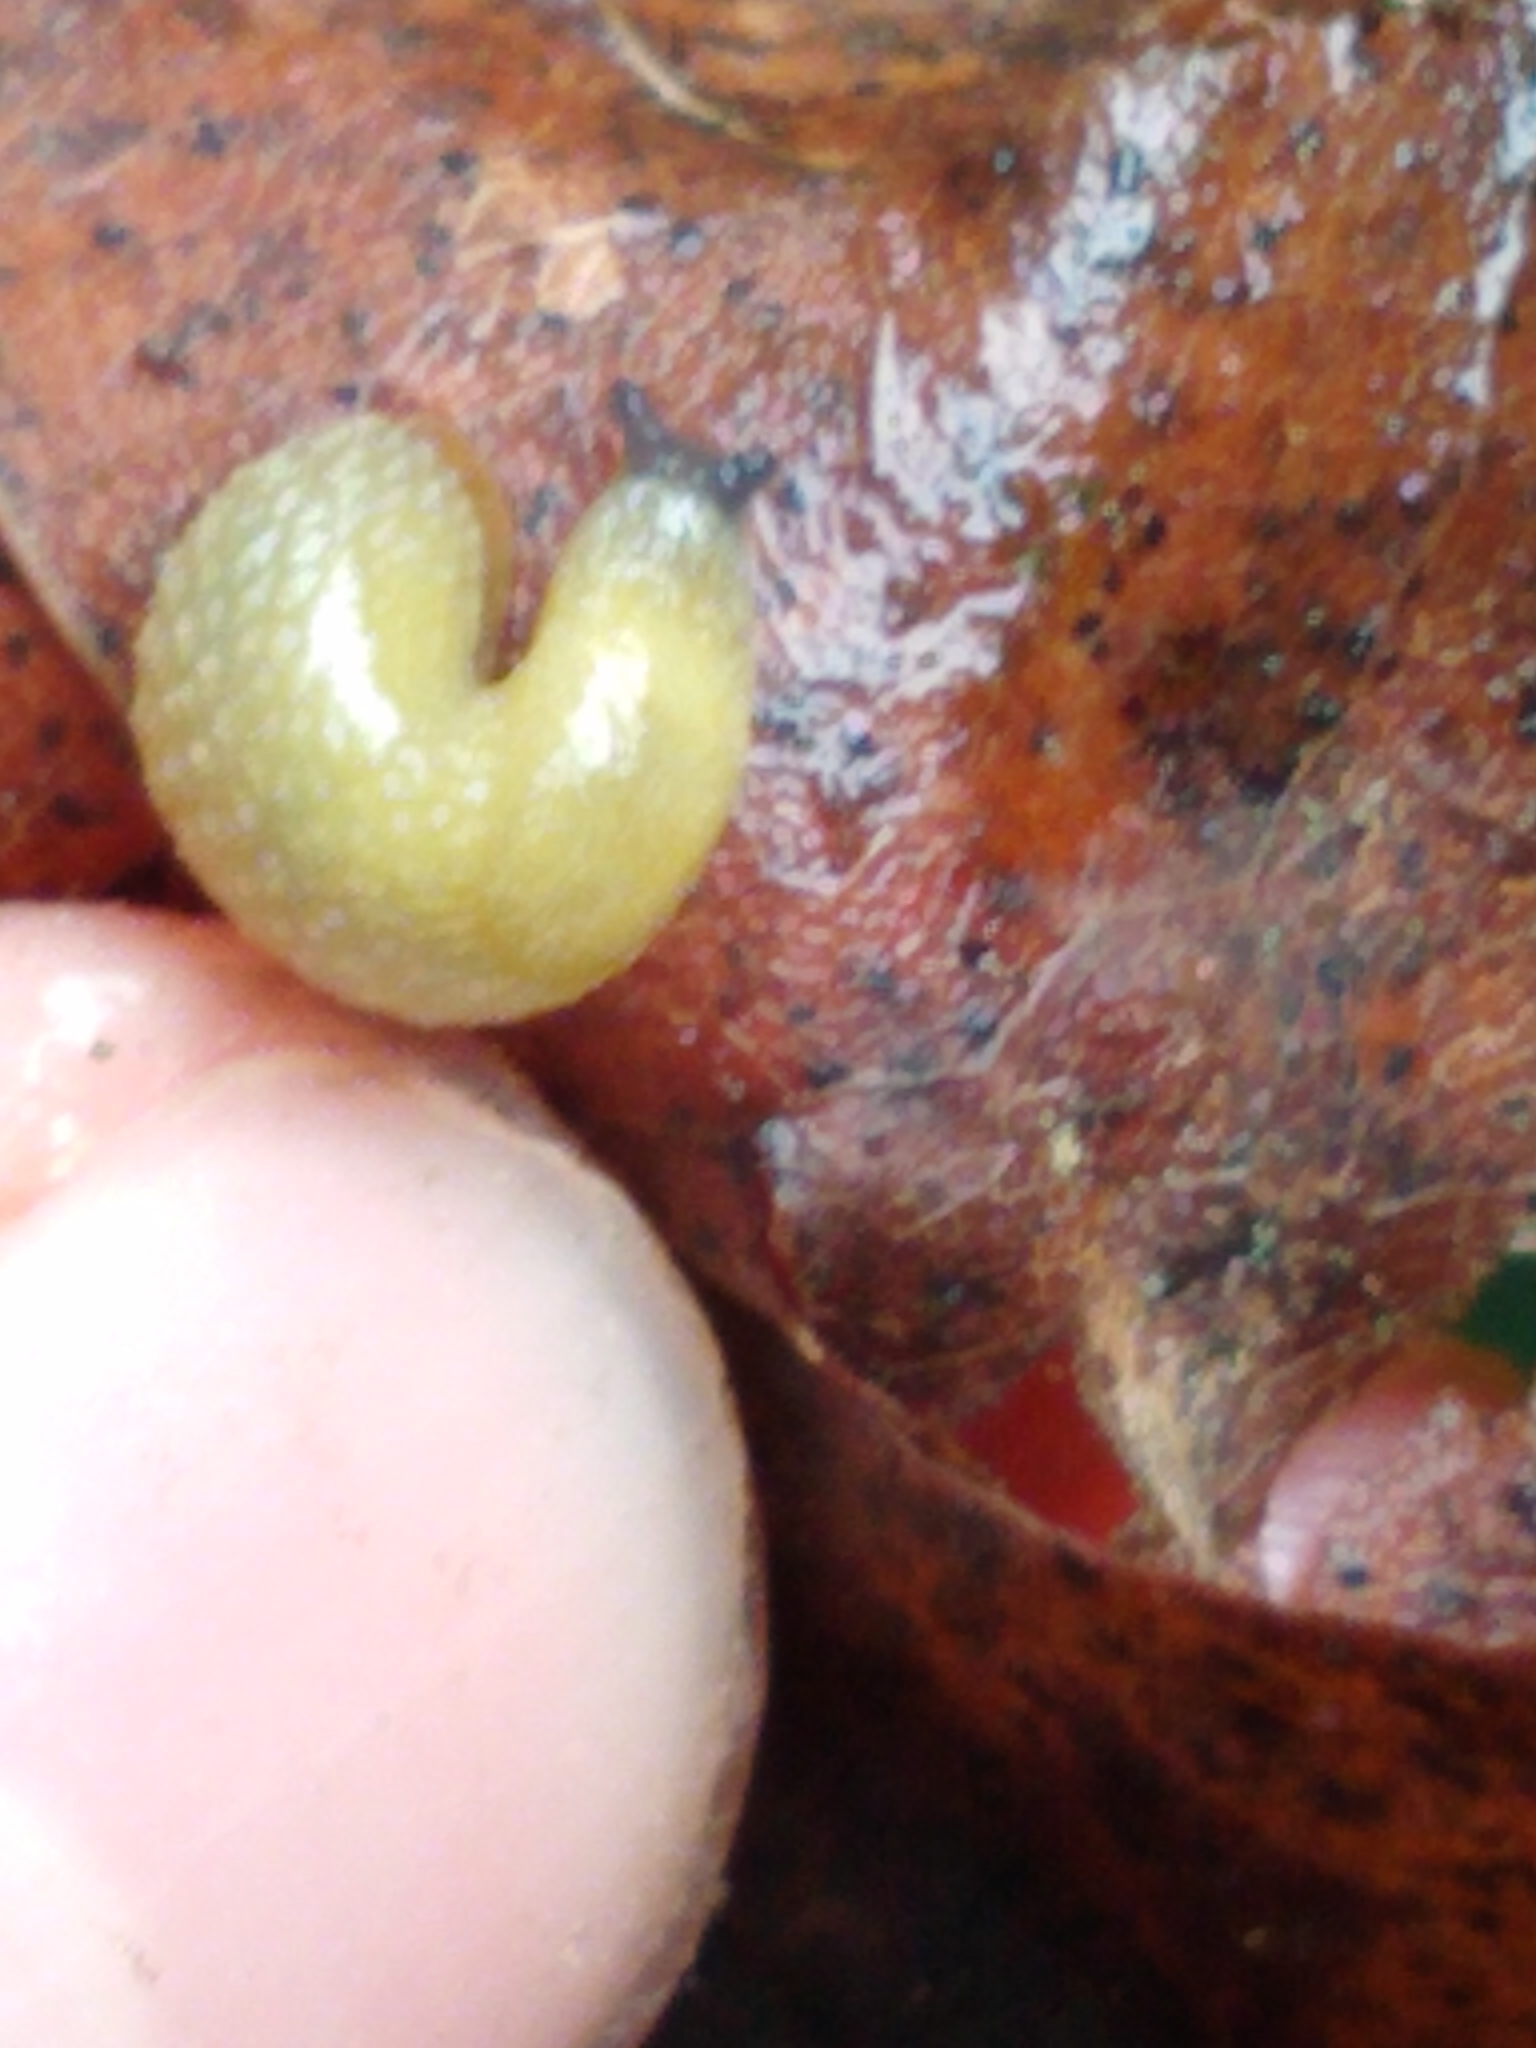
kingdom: Animalia
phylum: Mollusca
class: Gastropoda
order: Stylommatophora
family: Arionidae
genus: Arion
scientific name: Arion intermedius
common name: Hedgehog slug
